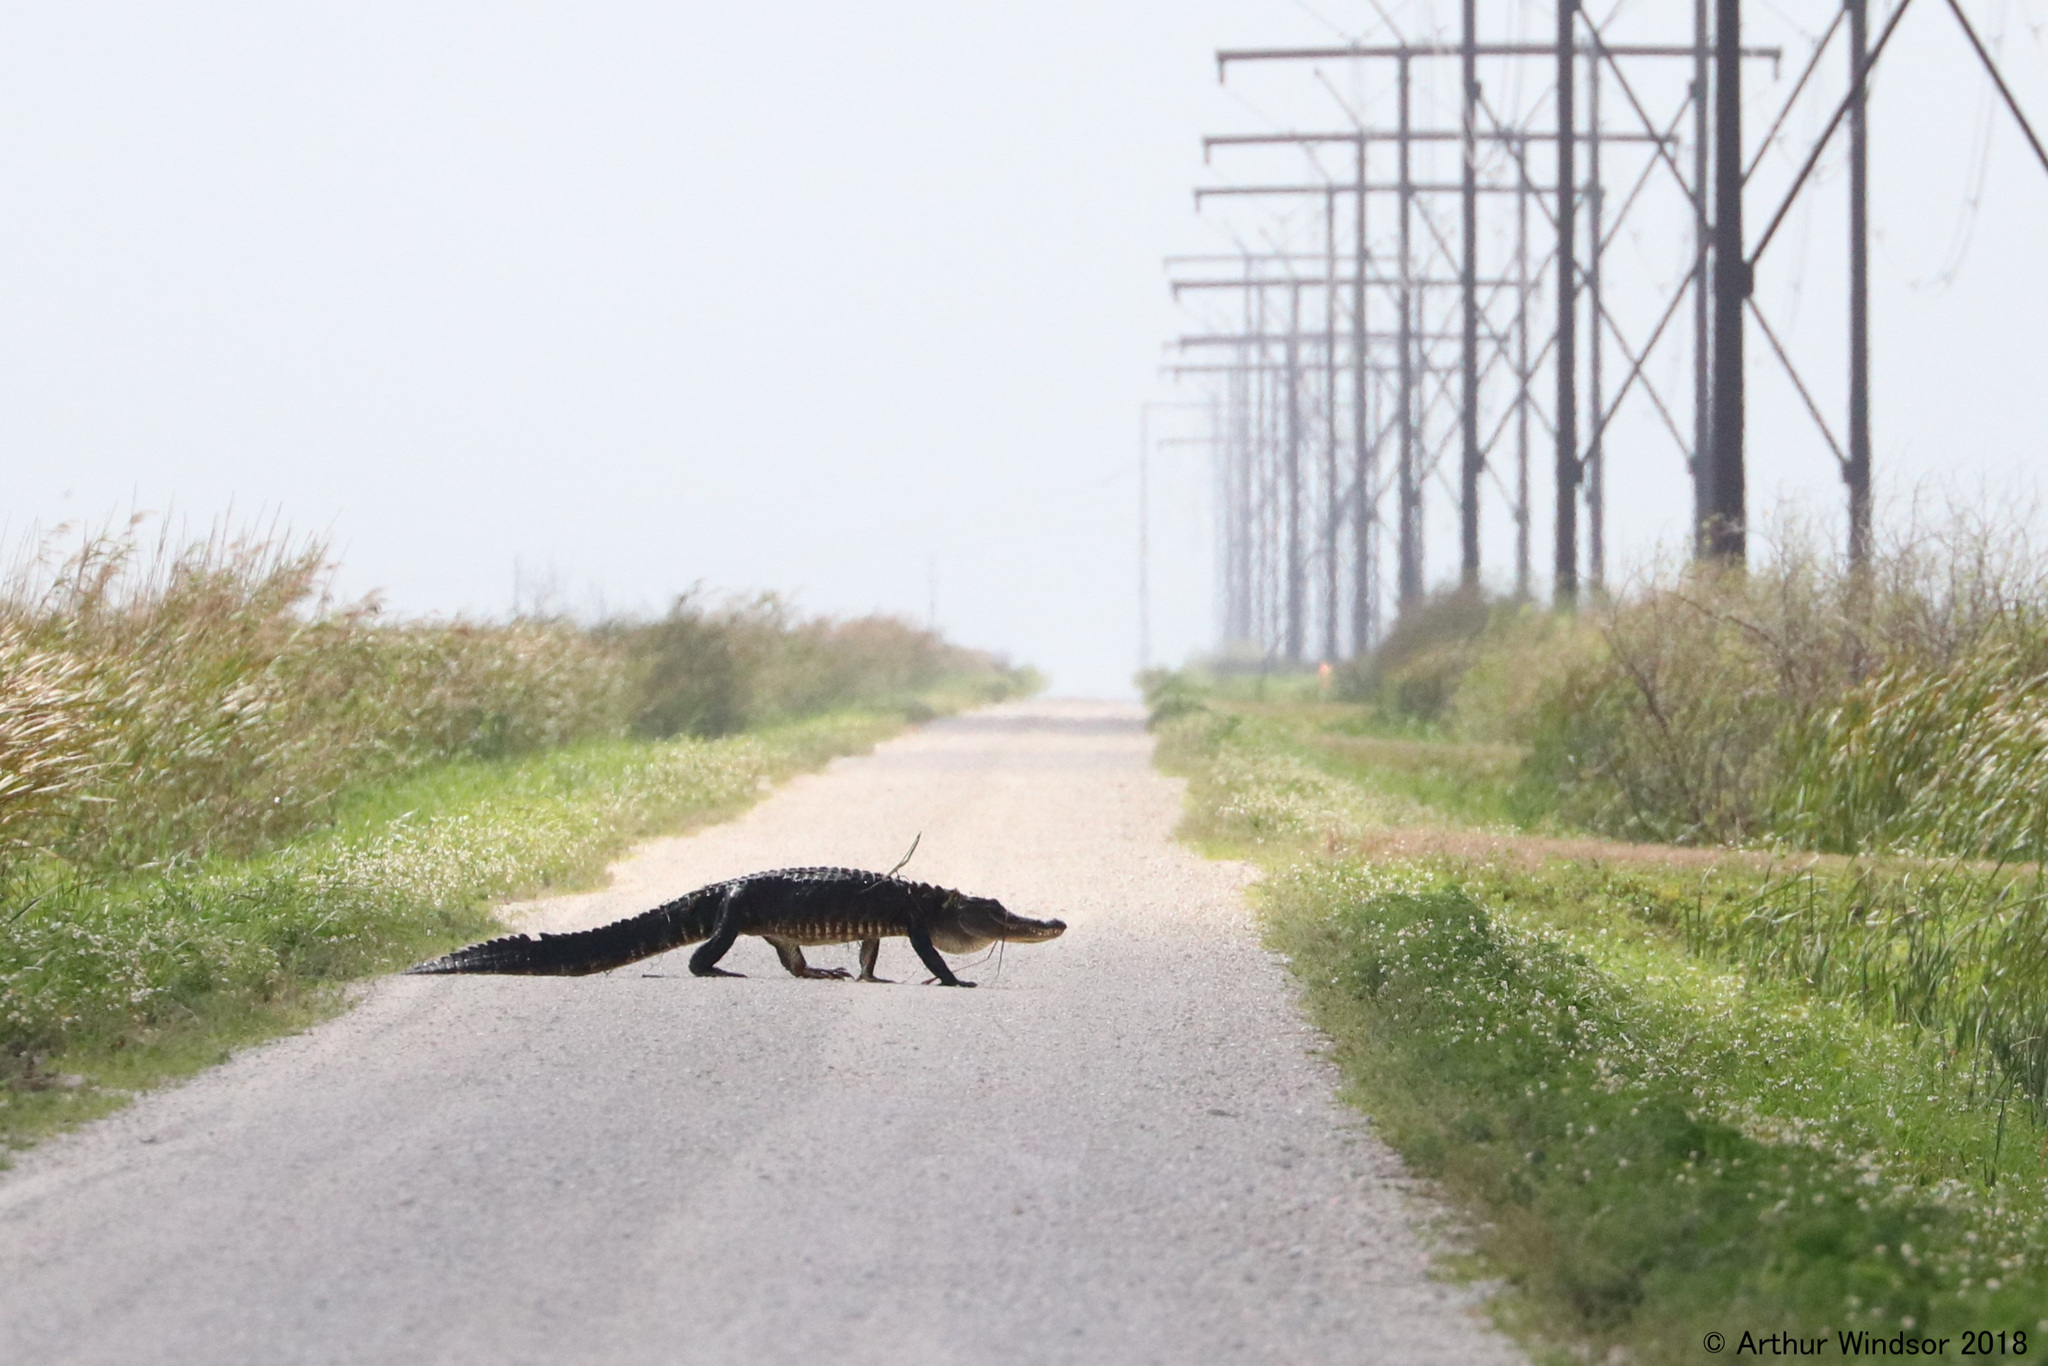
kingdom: Animalia
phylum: Chordata
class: Crocodylia
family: Alligatoridae
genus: Alligator
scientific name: Alligator mississippiensis
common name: American alligator
